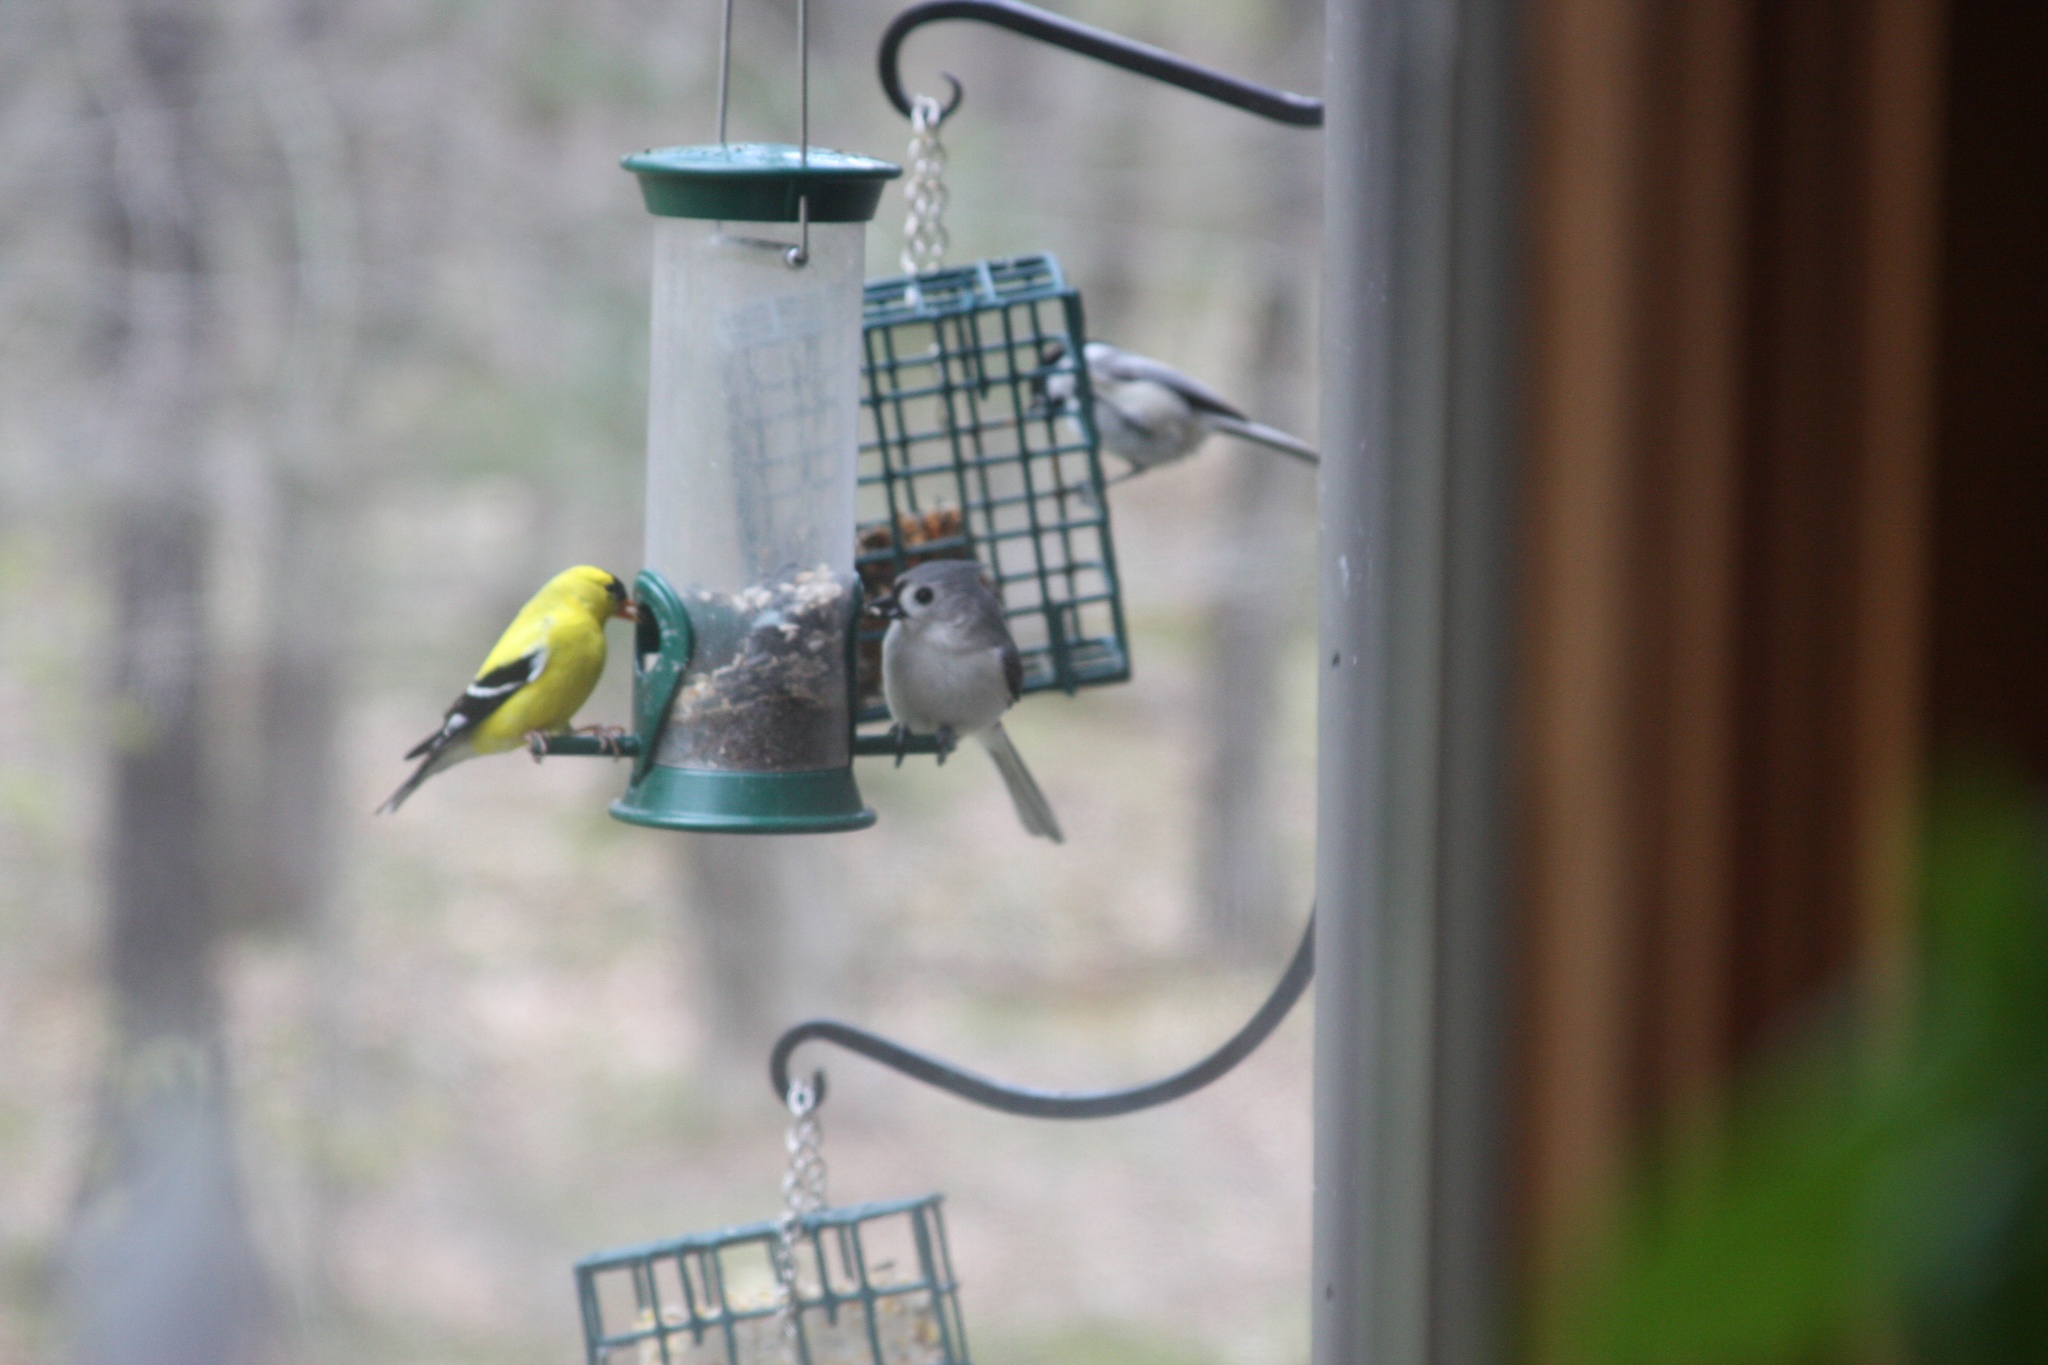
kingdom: Animalia
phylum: Chordata
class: Aves
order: Passeriformes
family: Fringillidae
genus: Spinus
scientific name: Spinus tristis
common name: American goldfinch
